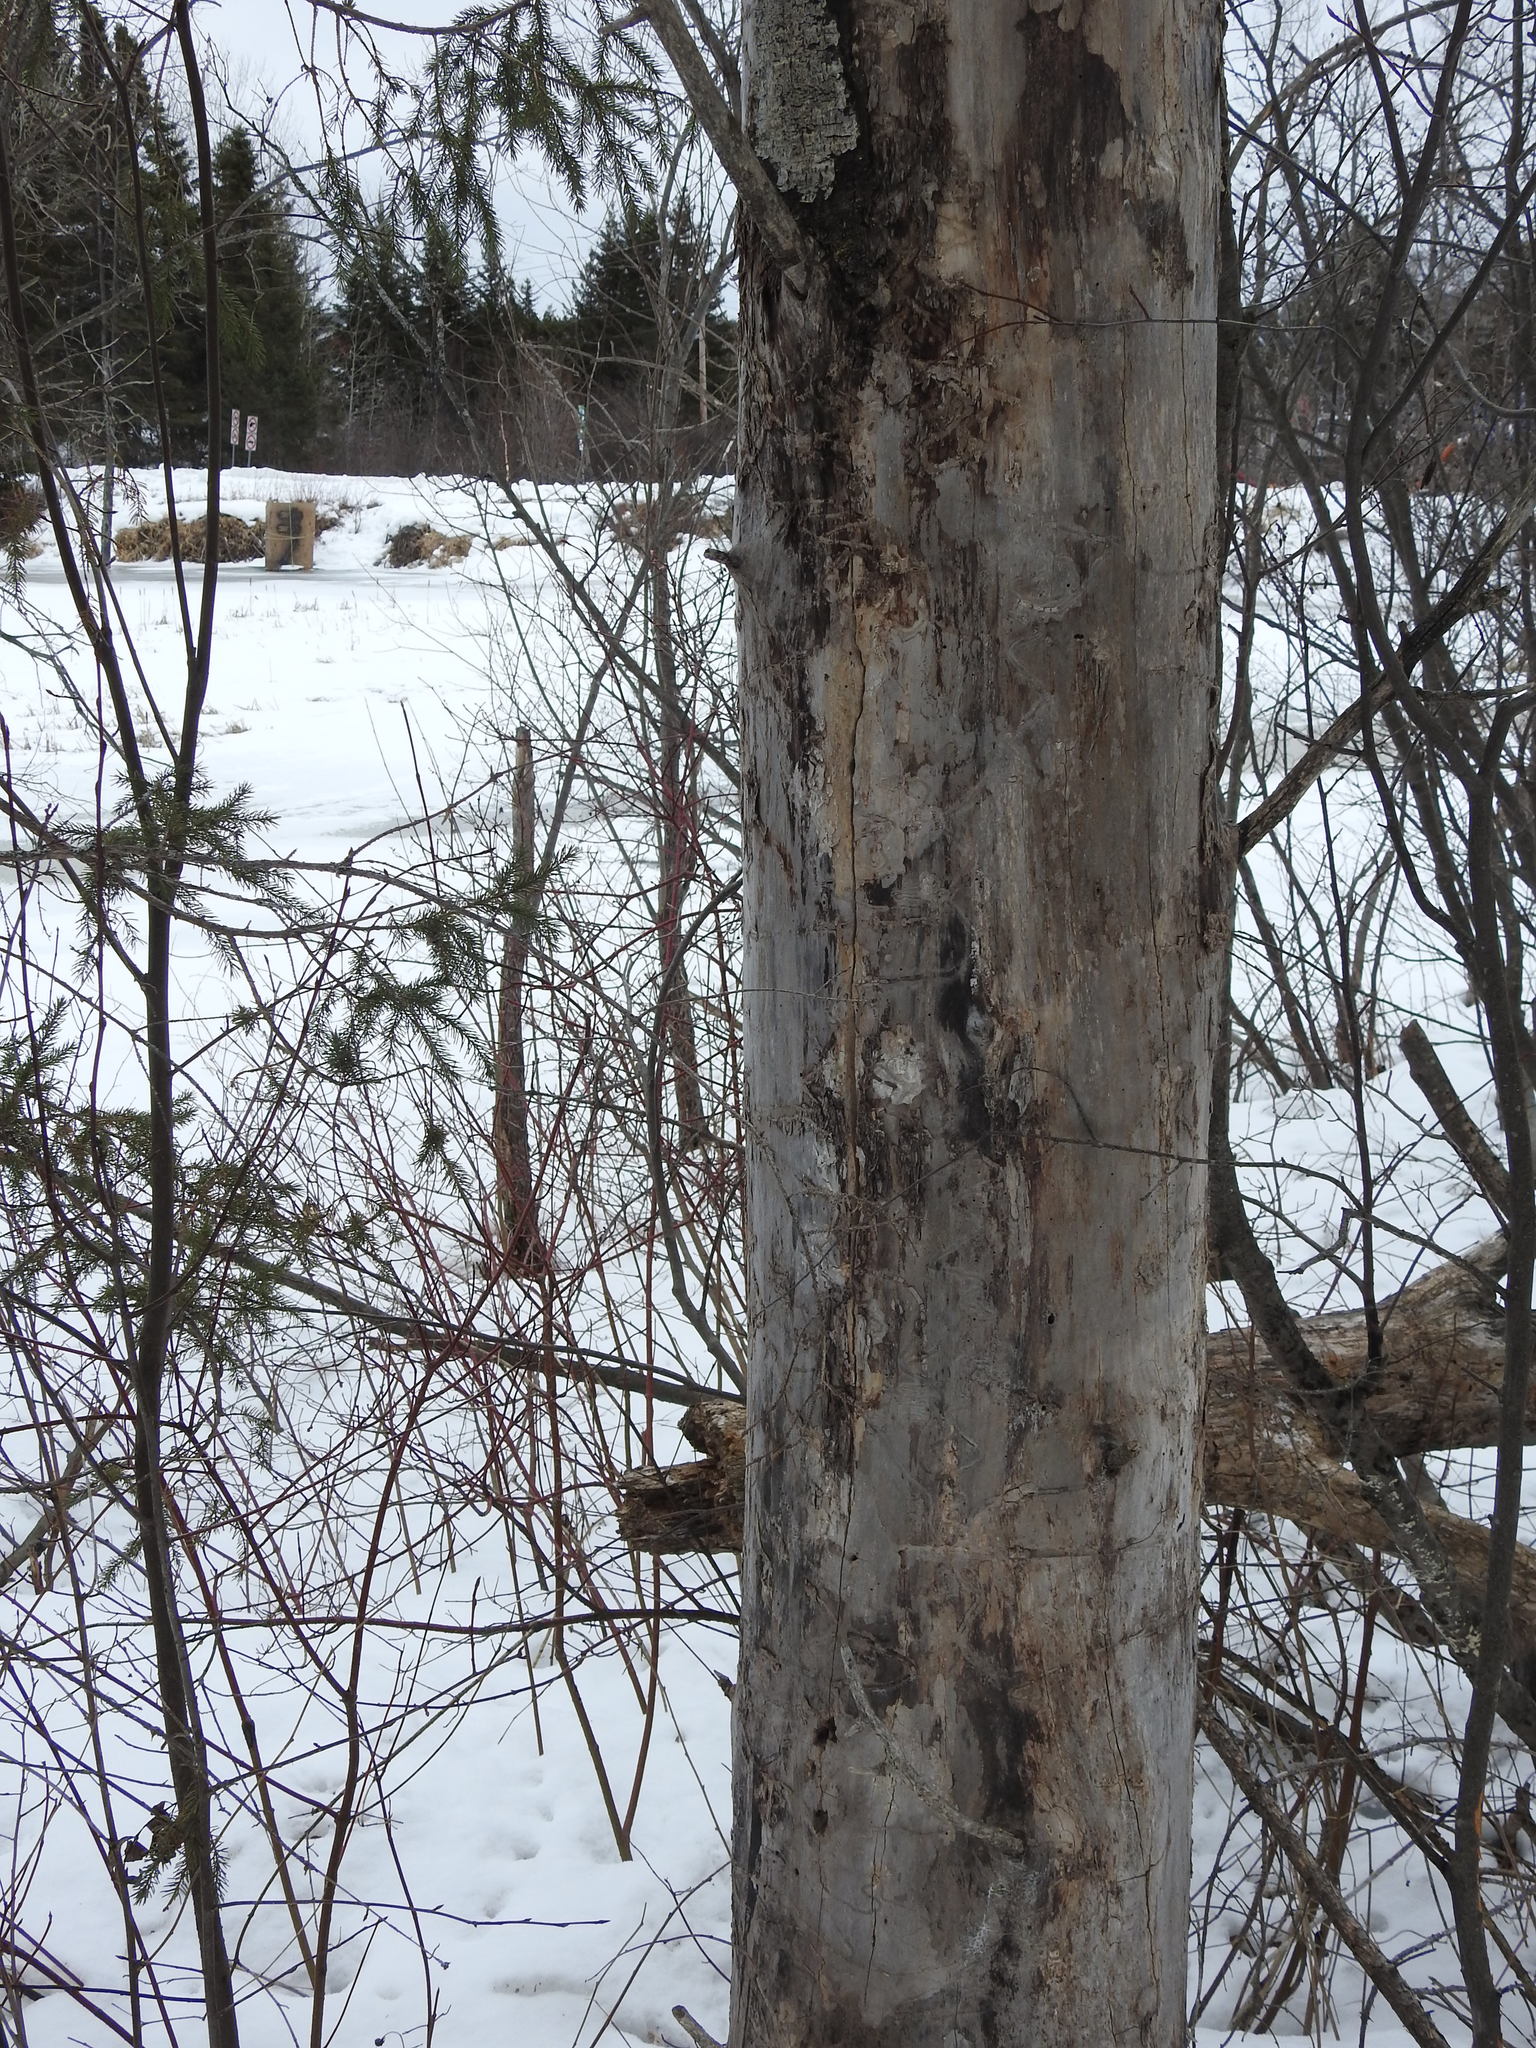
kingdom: Plantae
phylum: Tracheophyta
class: Magnoliopsida
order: Malpighiales
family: Salicaceae
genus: Populus
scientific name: Populus tremuloides
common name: Quaking aspen
